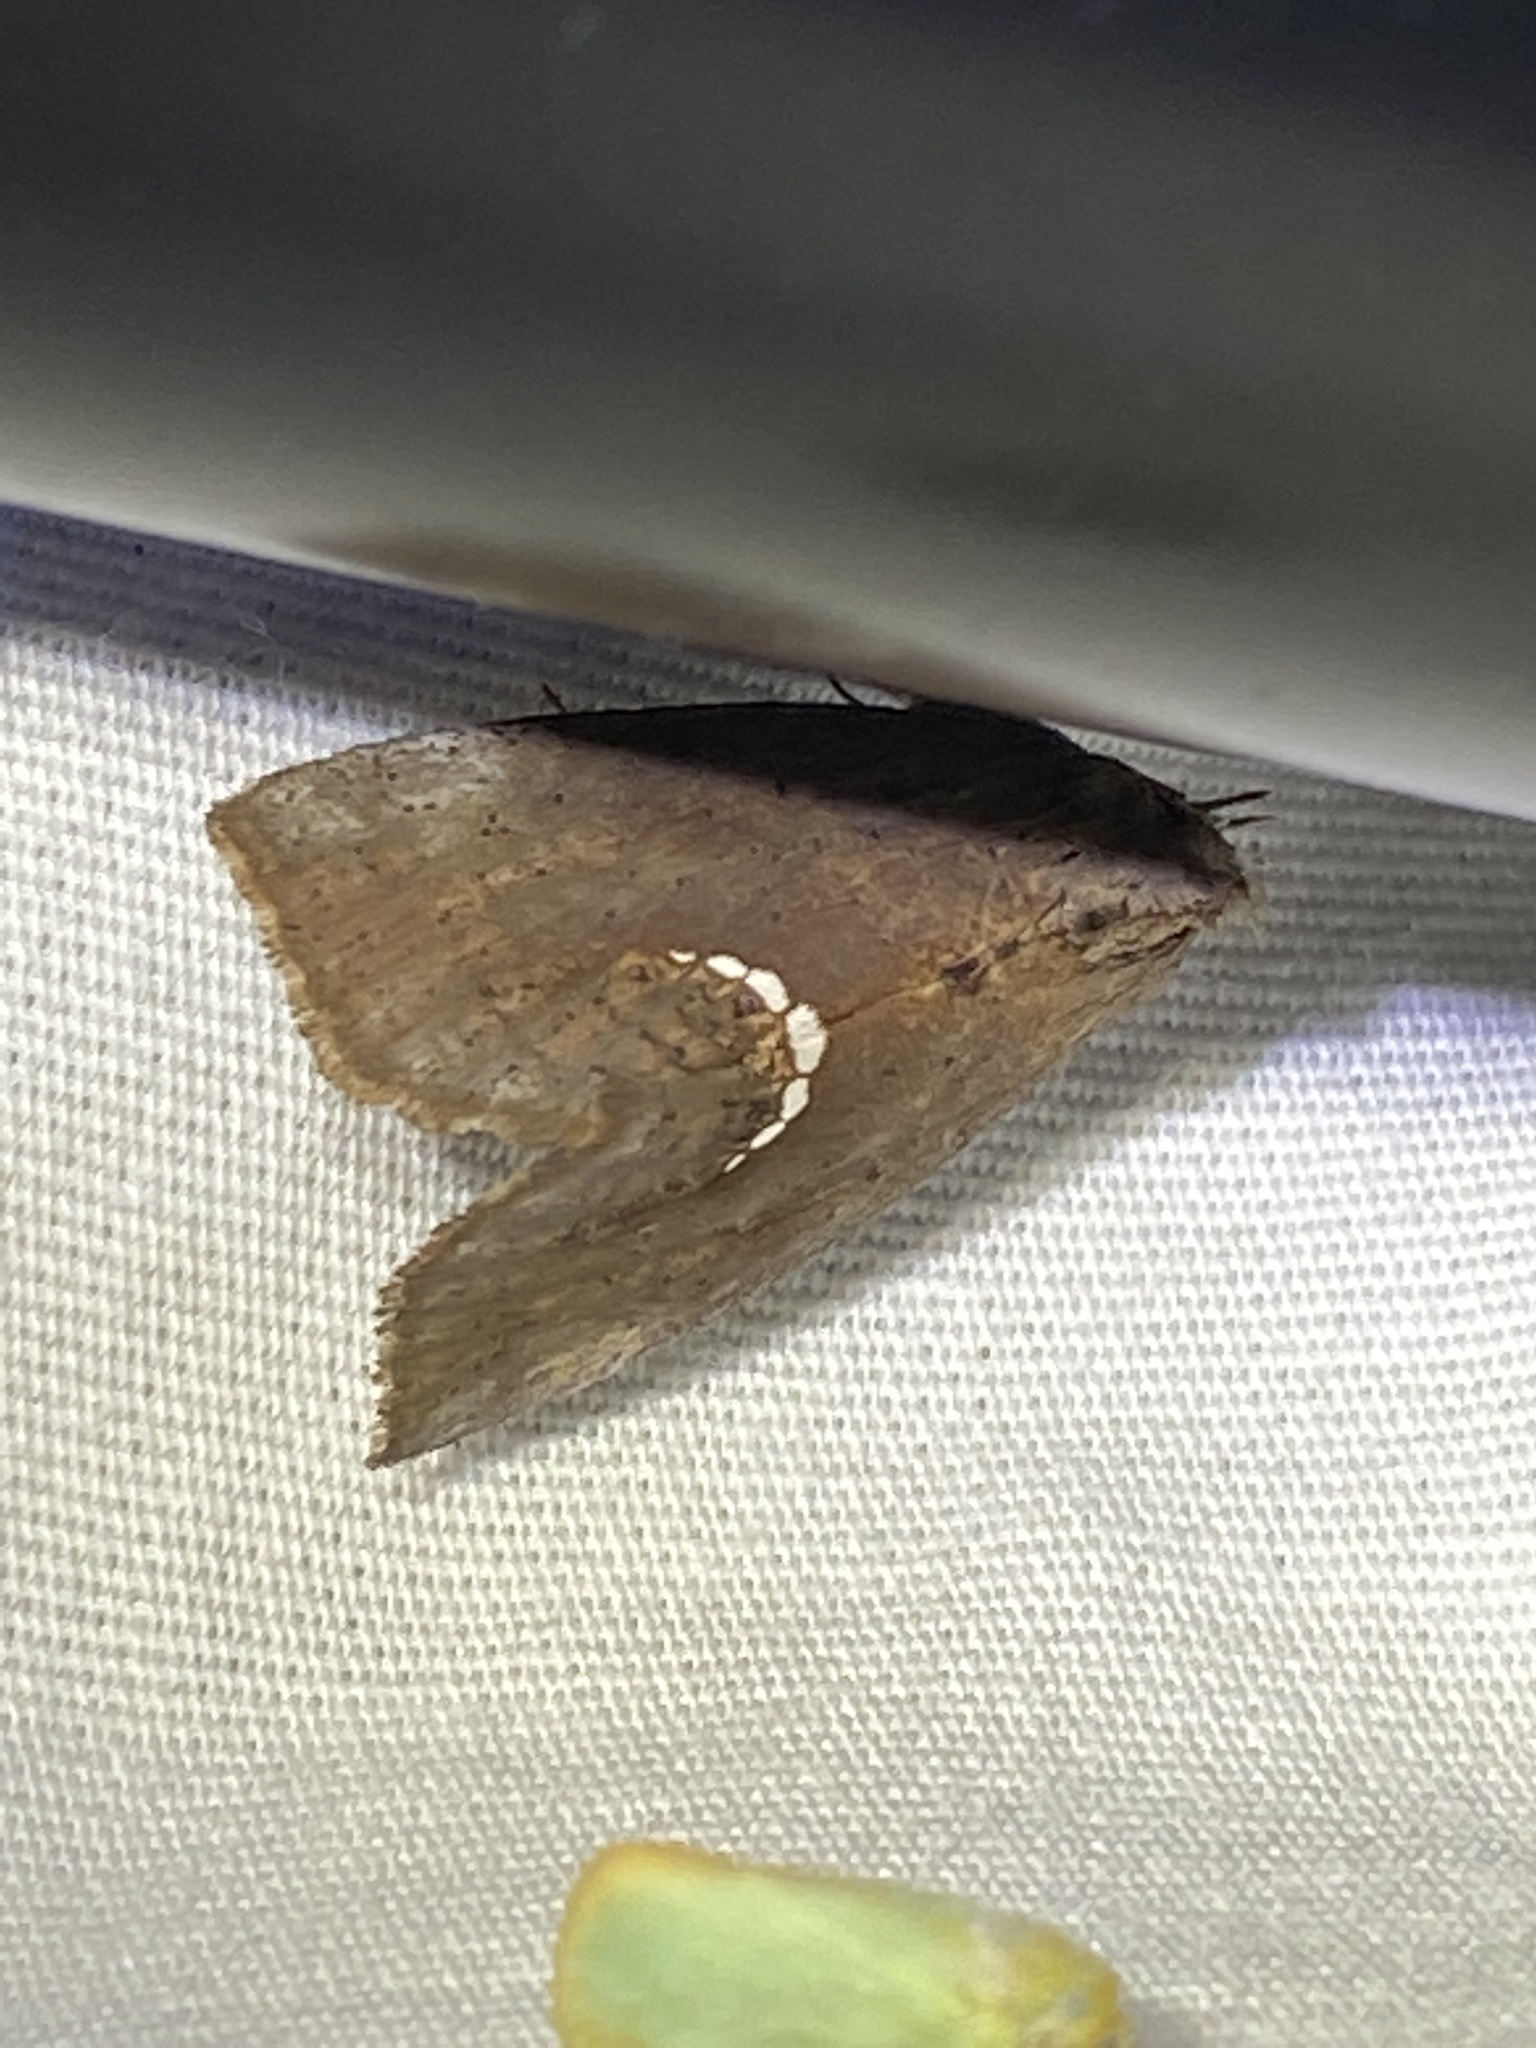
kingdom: Animalia
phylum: Arthropoda
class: Insecta
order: Lepidoptera
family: Erebidae
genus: Hypsoropha
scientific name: Hypsoropha hormos
